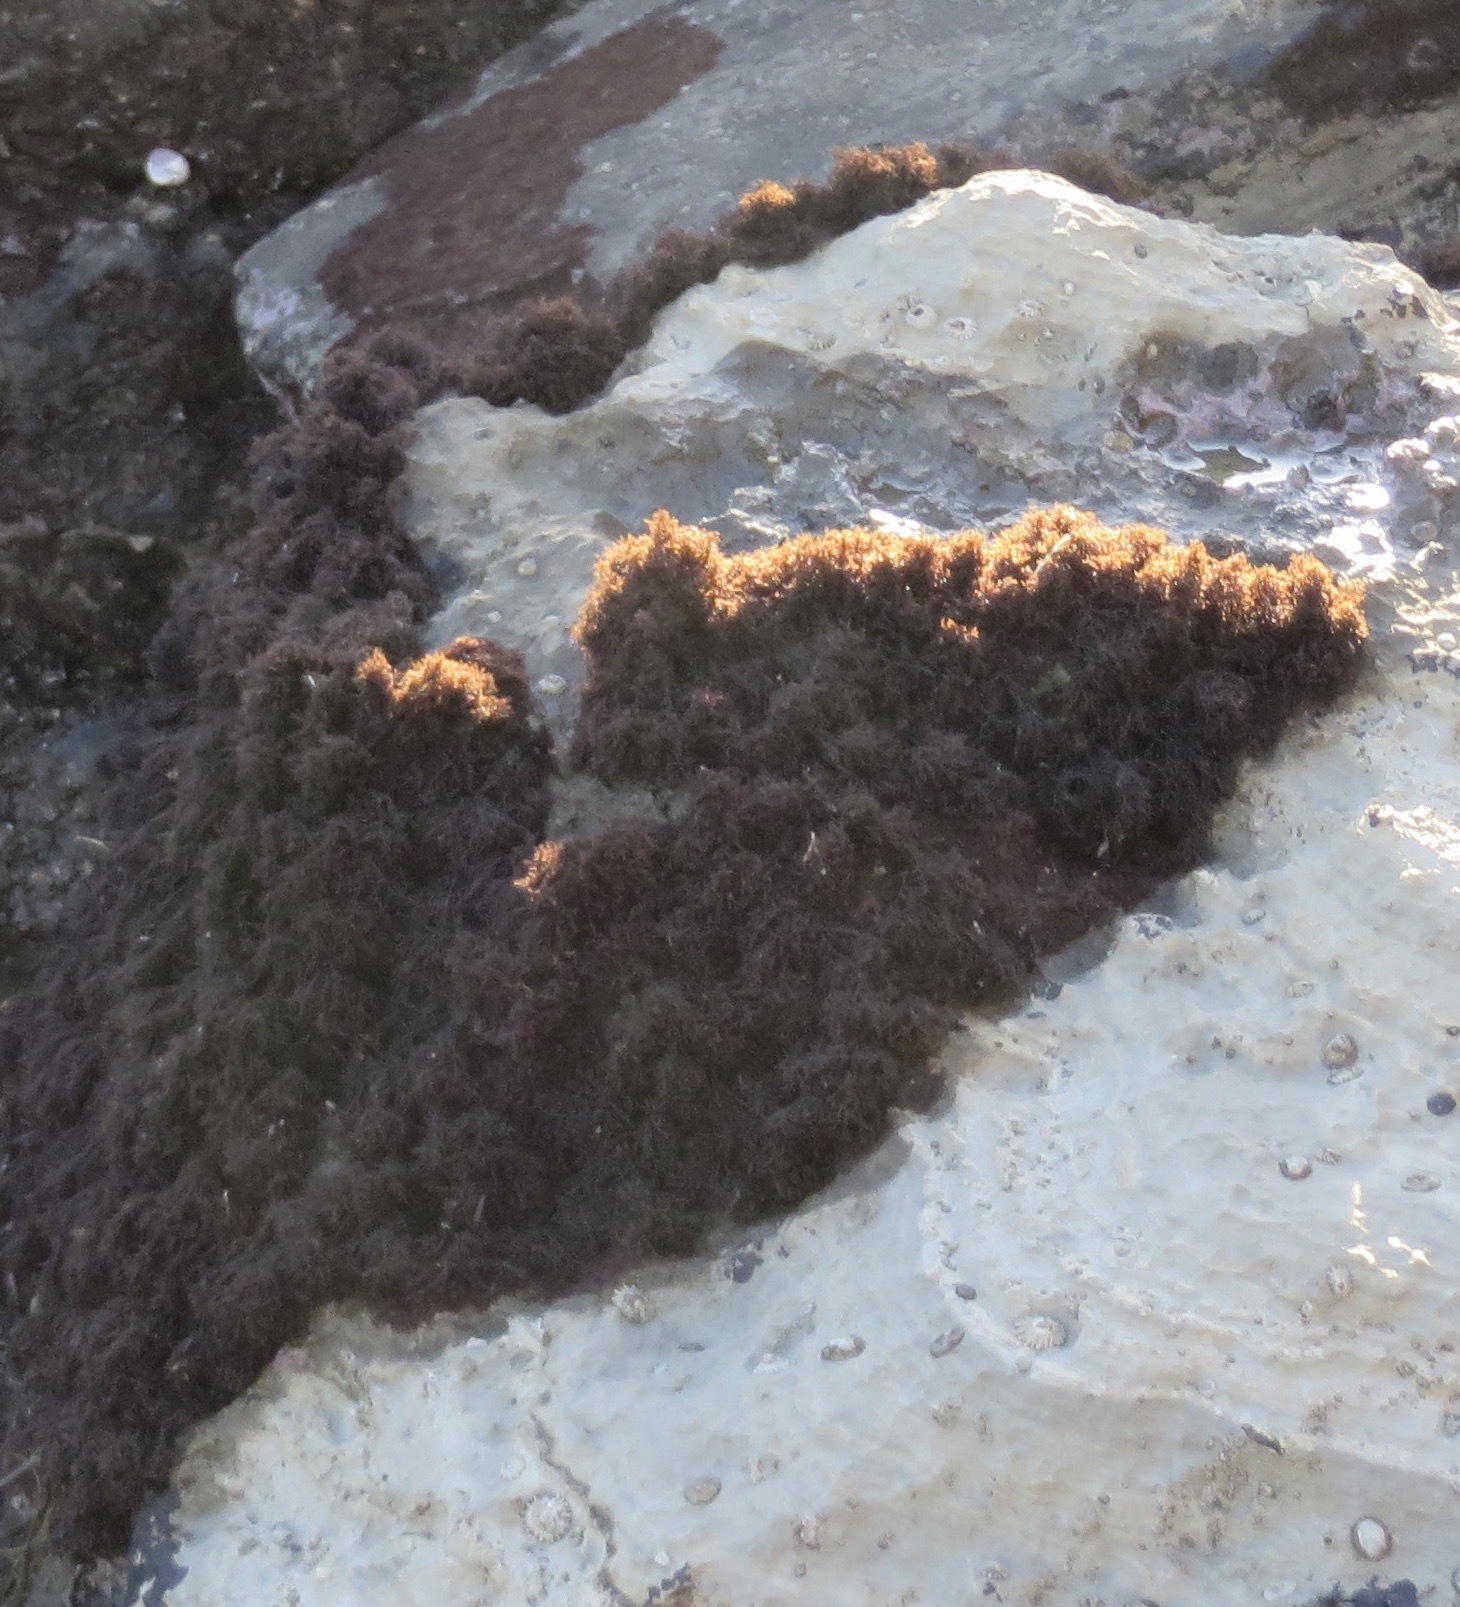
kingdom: Plantae
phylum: Rhodophyta
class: Florideophyceae
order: Gigartinales
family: Endocladiaceae
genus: Endocladia
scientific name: Endocladia muricata
